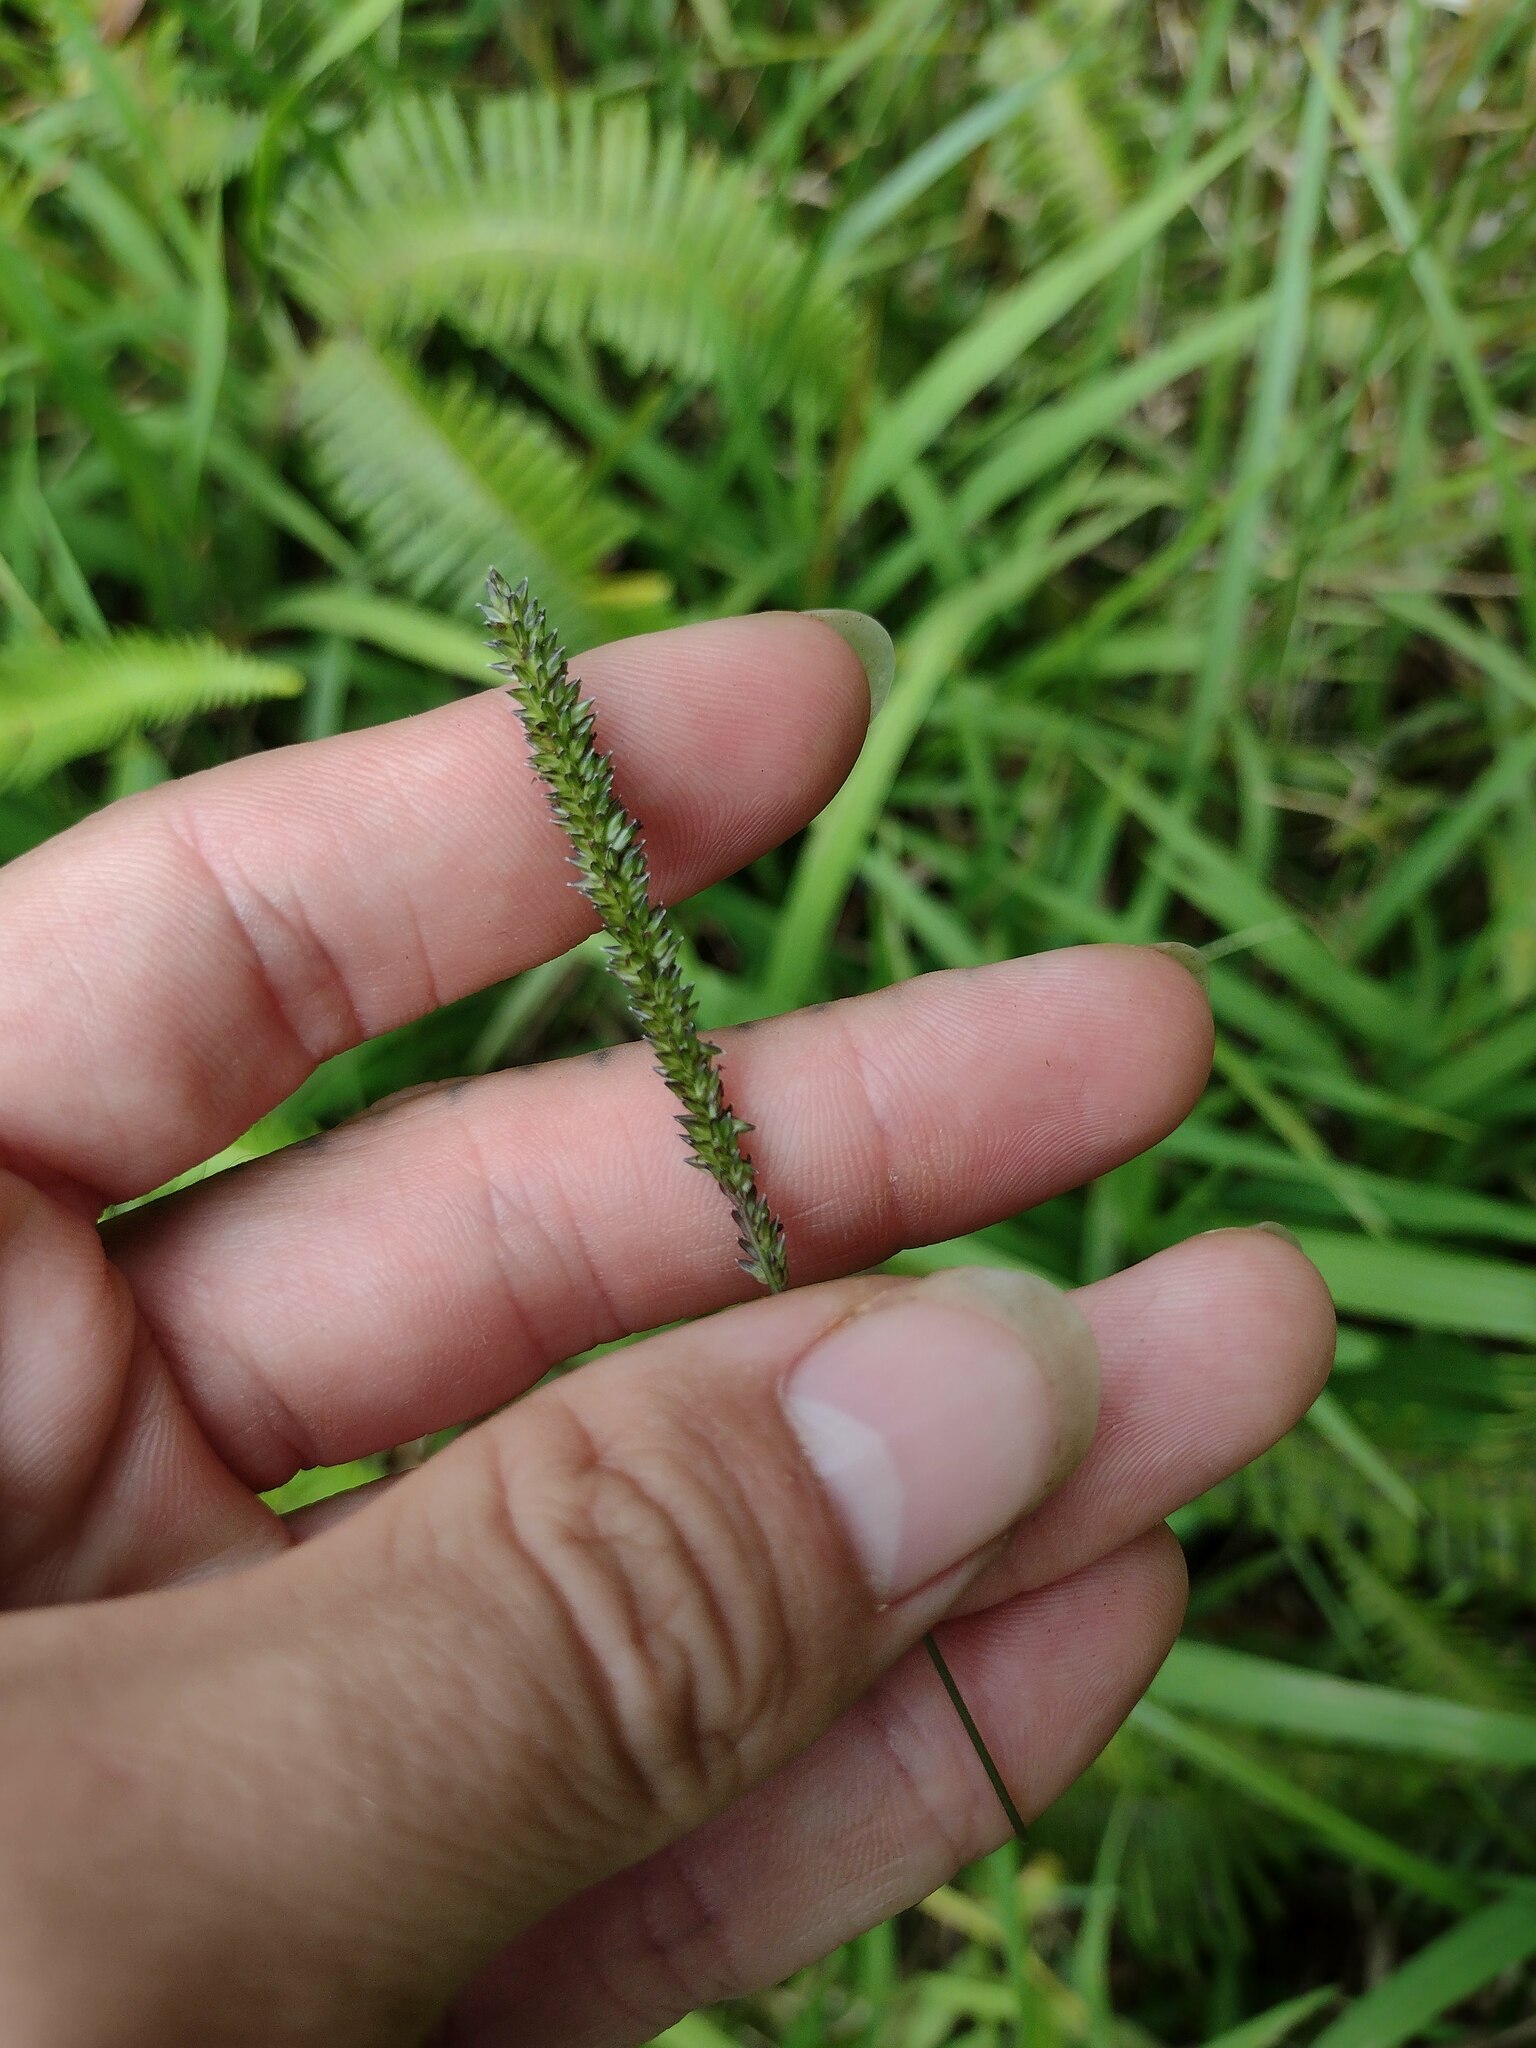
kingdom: Plantae
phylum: Tracheophyta
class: Liliopsida
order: Poales
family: Poaceae
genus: Sacciolepis
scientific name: Sacciolepis indica
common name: Glenwoodgrass
